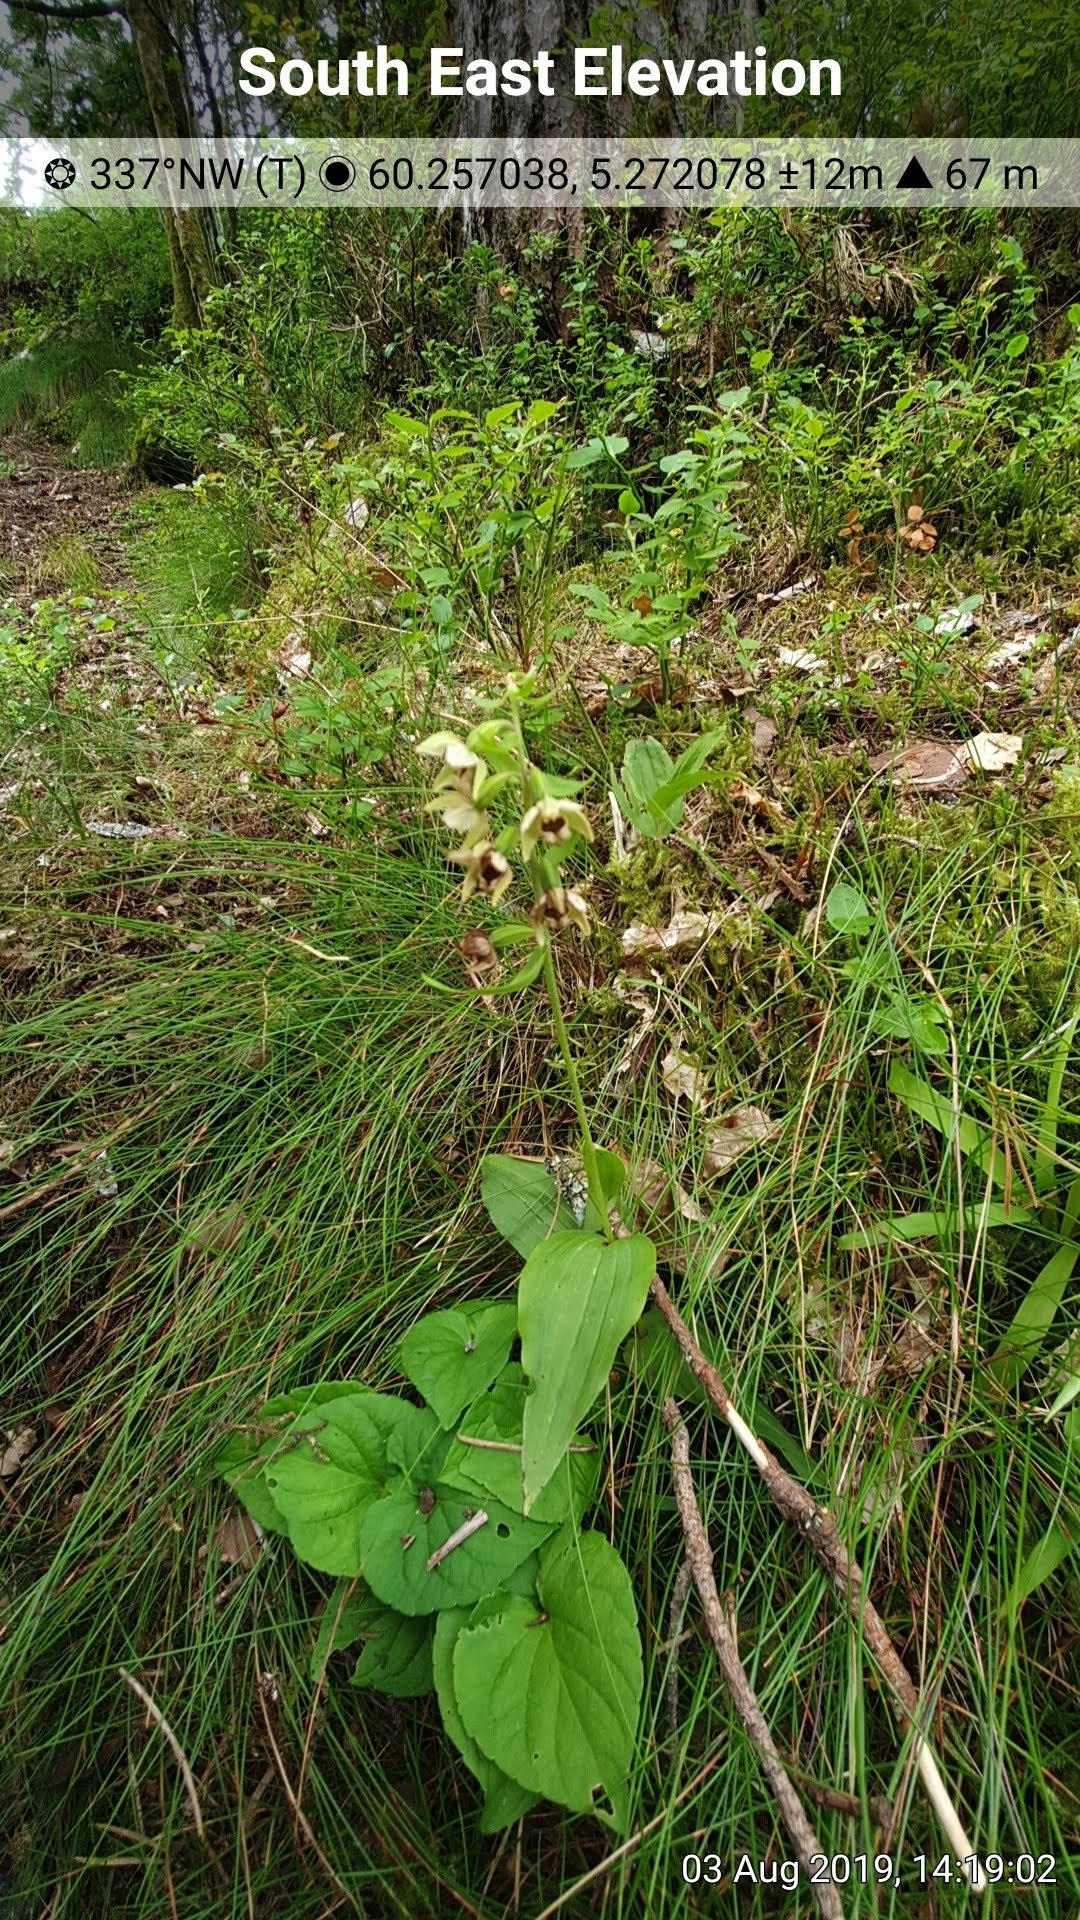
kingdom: Plantae
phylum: Tracheophyta
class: Liliopsida
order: Asparagales
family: Orchidaceae
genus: Epipactis
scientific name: Epipactis helleborine
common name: Broad-leaved helleborine
